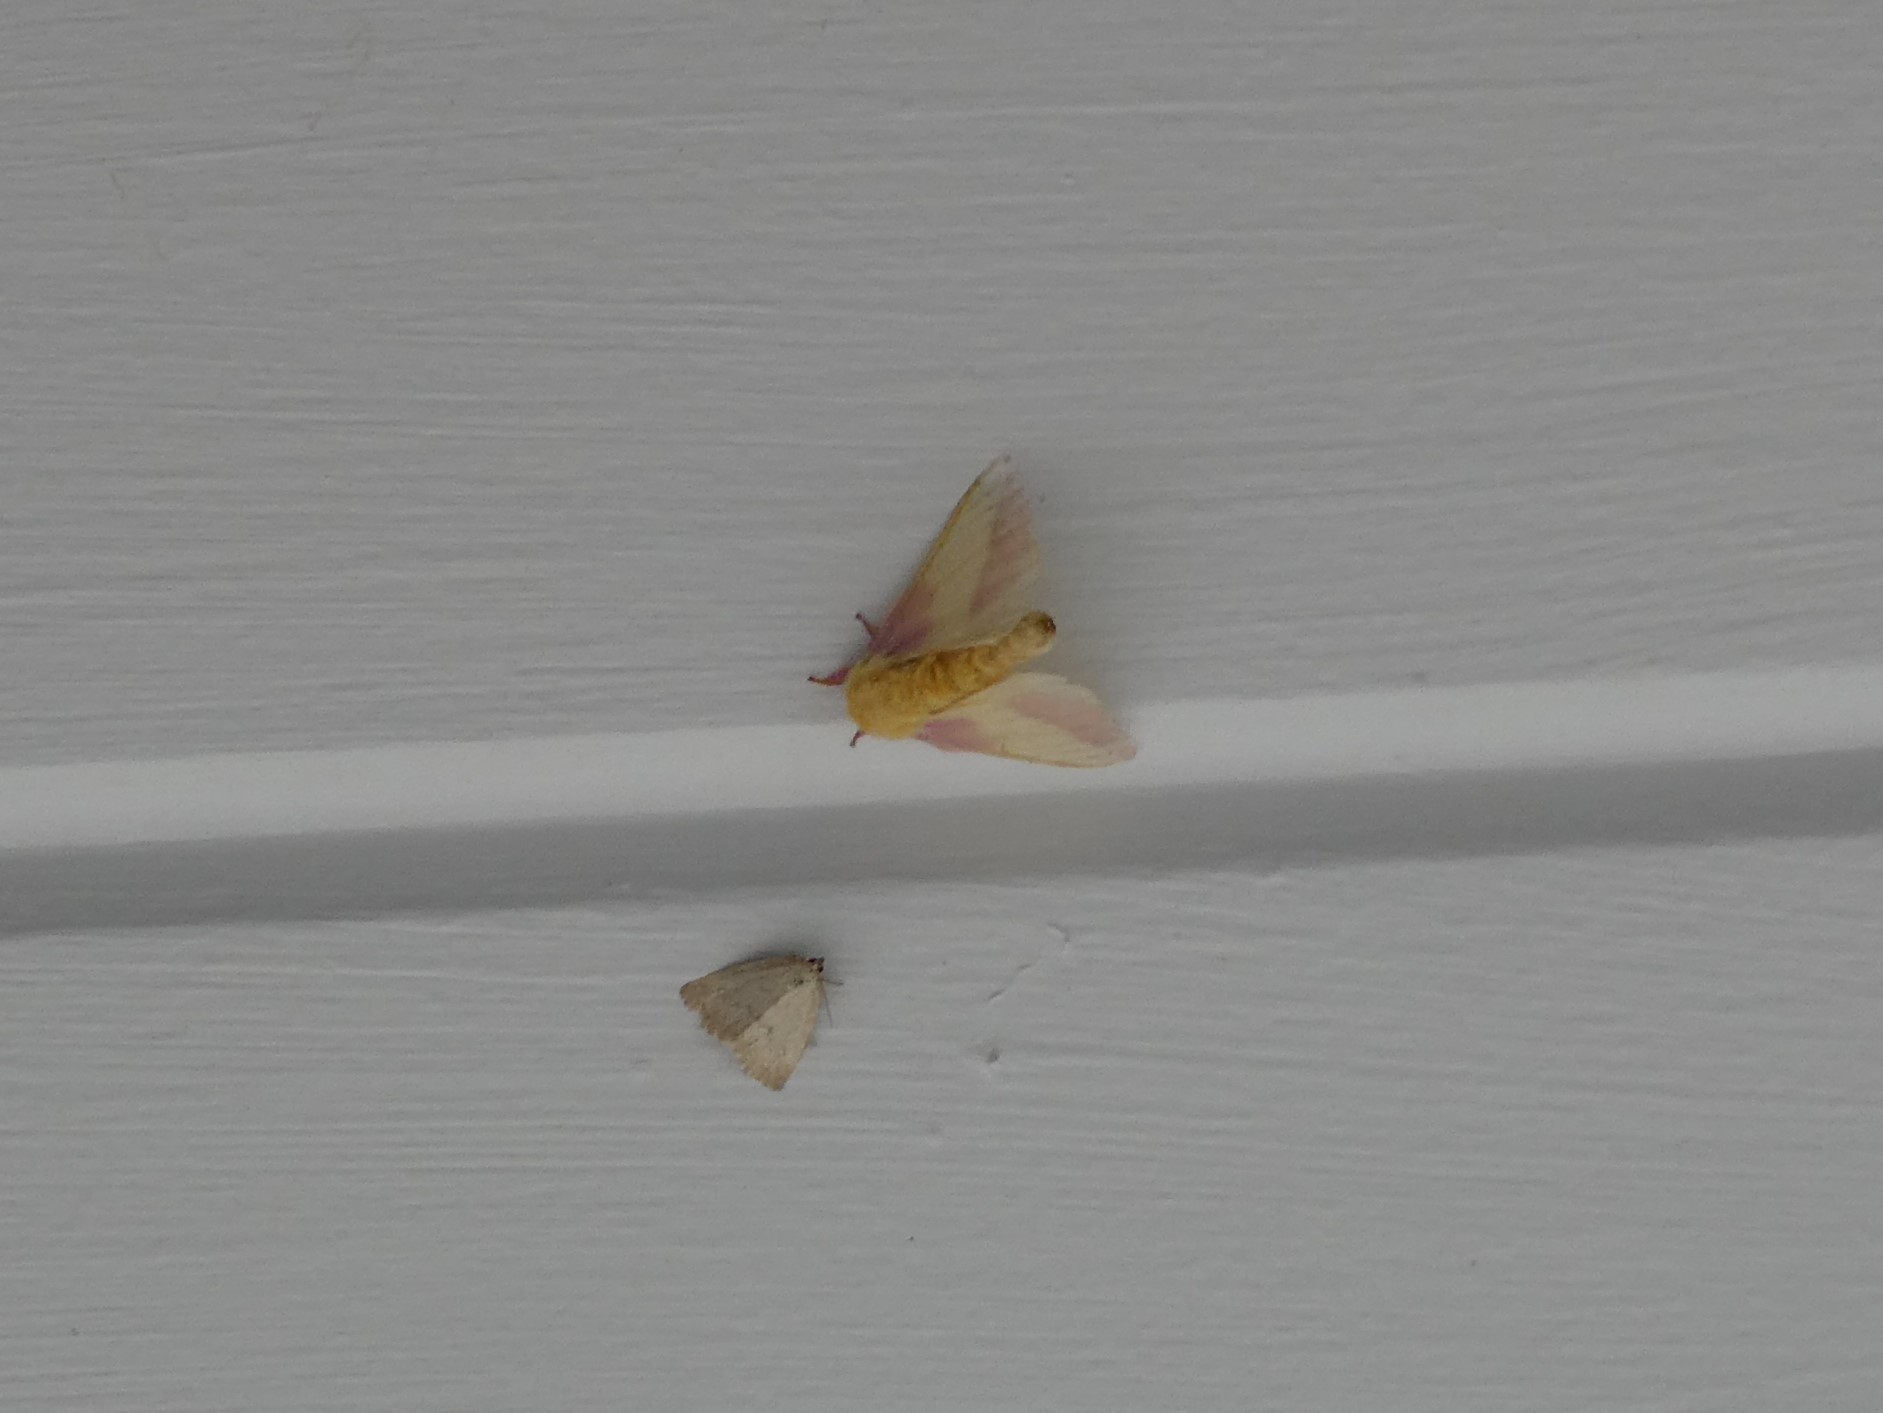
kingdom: Animalia
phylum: Arthropoda
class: Insecta
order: Lepidoptera
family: Noctuidae
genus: Protodeltote
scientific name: Protodeltote albidula
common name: Pale glyph
